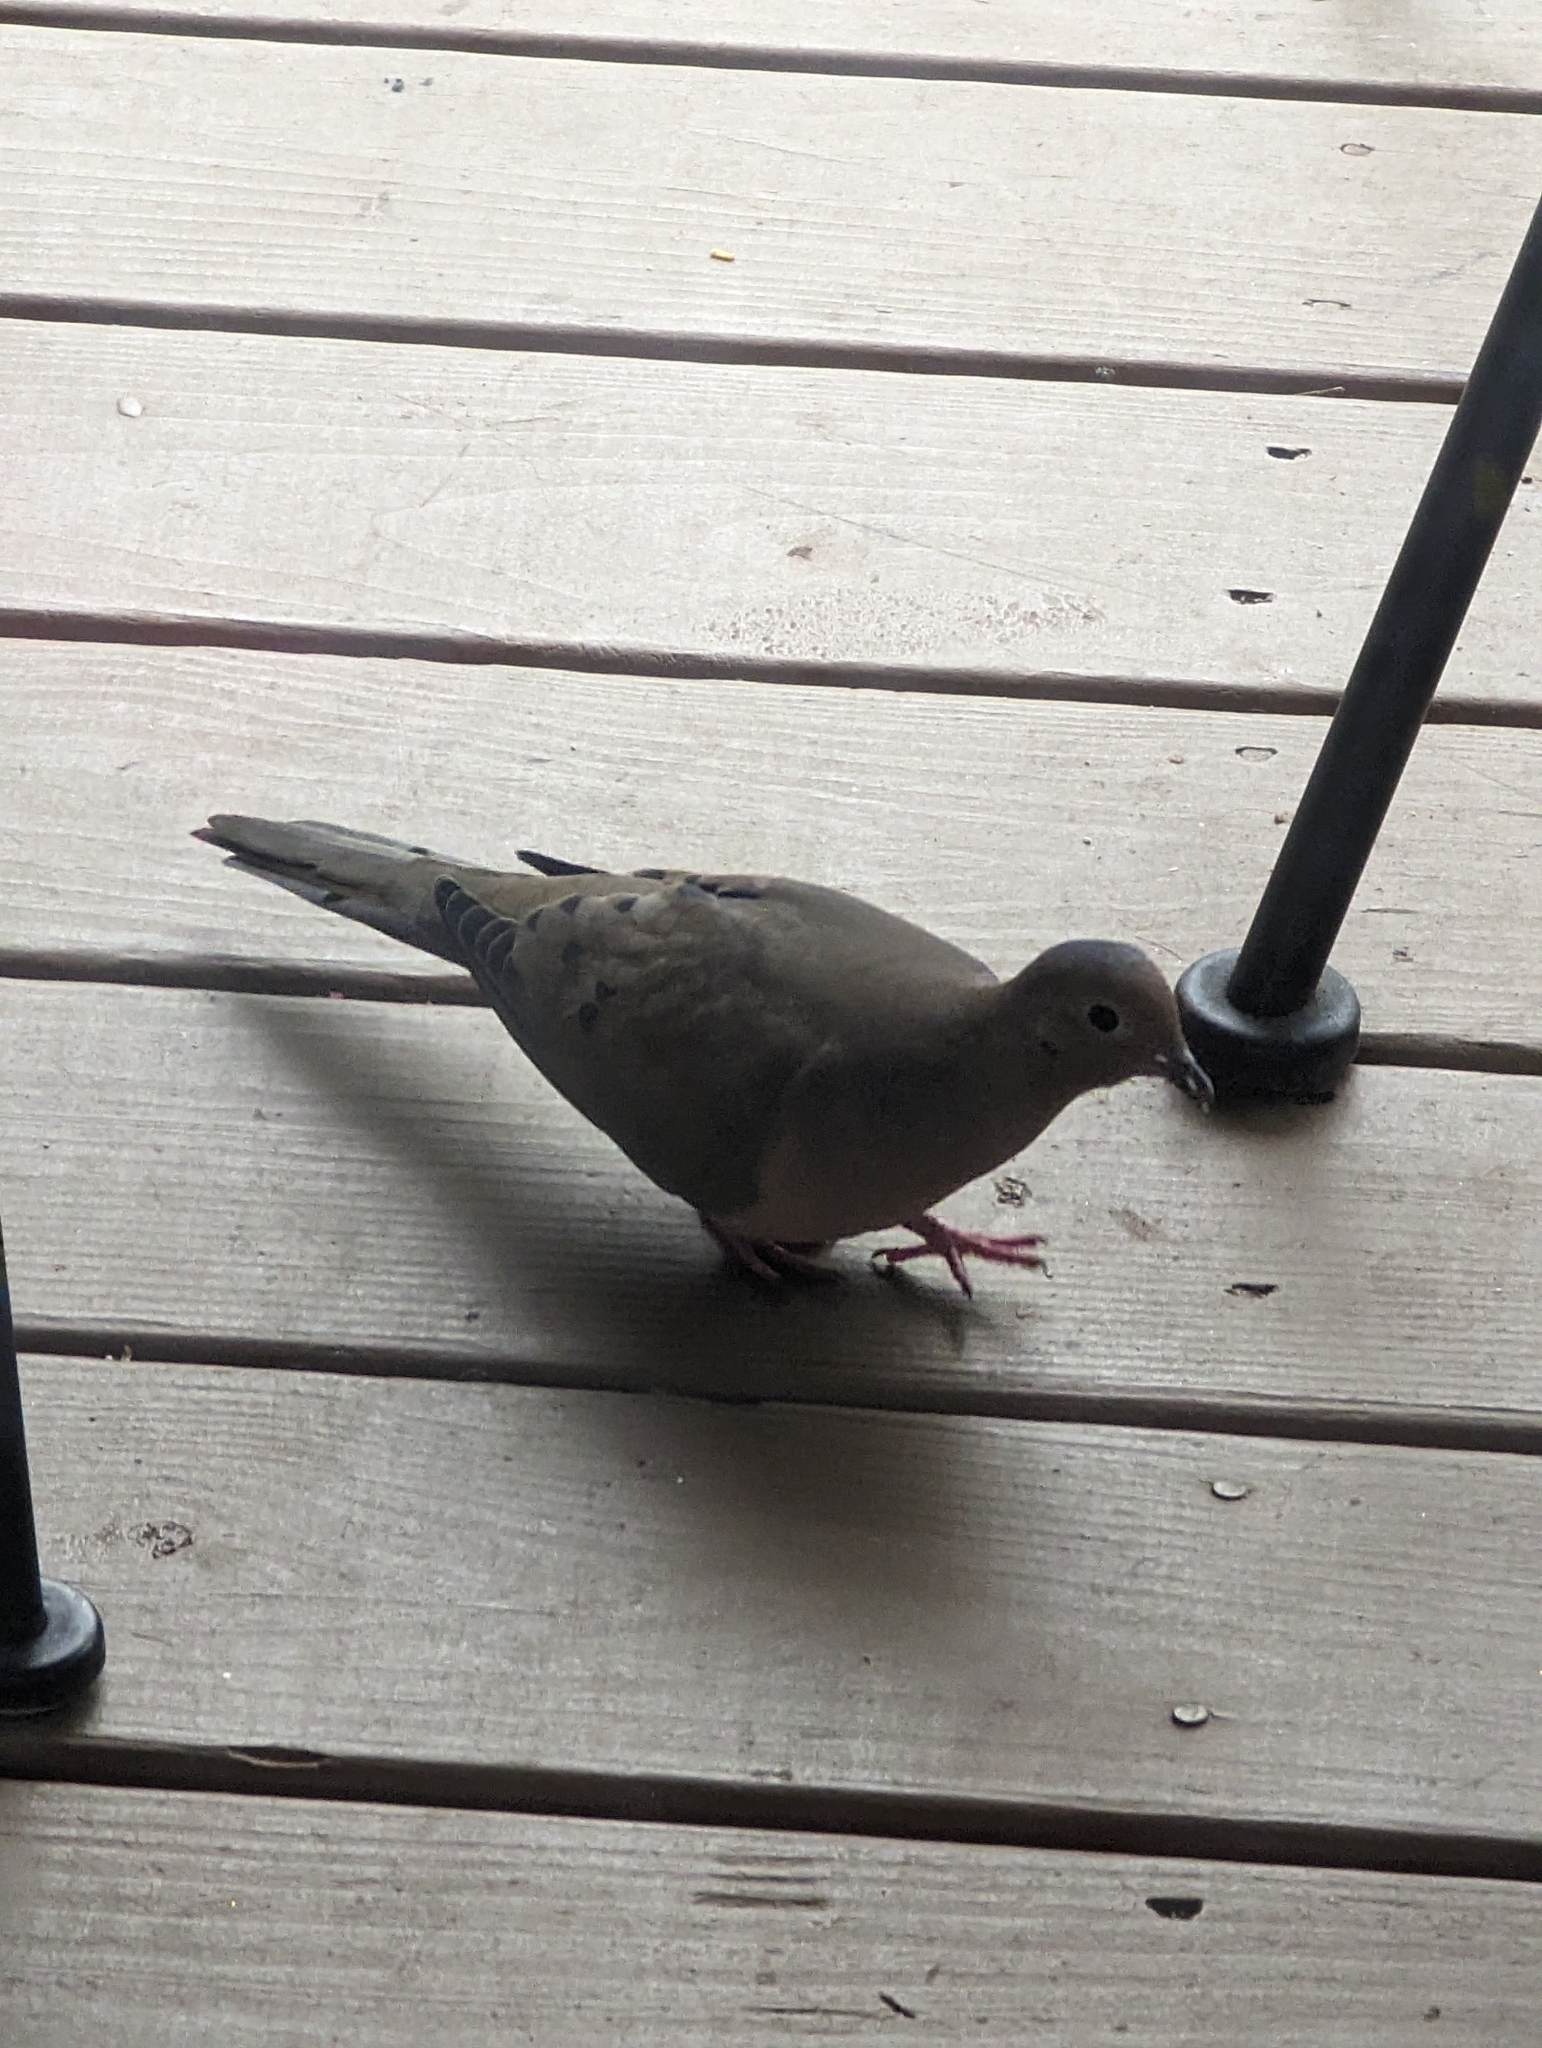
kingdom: Animalia
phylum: Chordata
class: Aves
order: Columbiformes
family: Columbidae
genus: Zenaida
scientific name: Zenaida macroura
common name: Mourning dove
